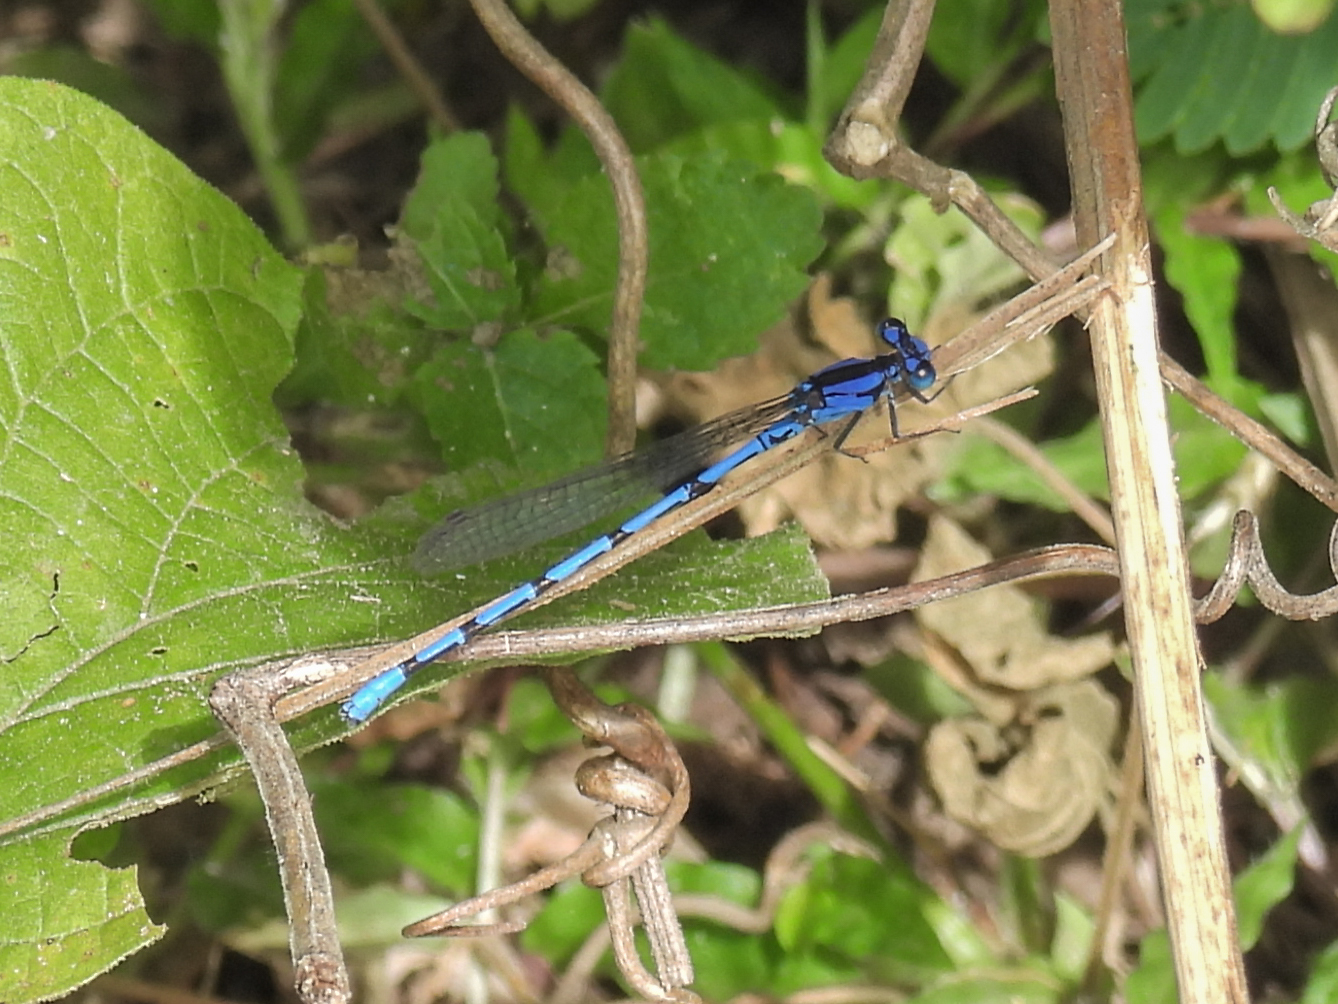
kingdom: Animalia
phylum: Arthropoda
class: Insecta
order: Odonata
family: Coenagrionidae
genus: Argia
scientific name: Argia elongata
